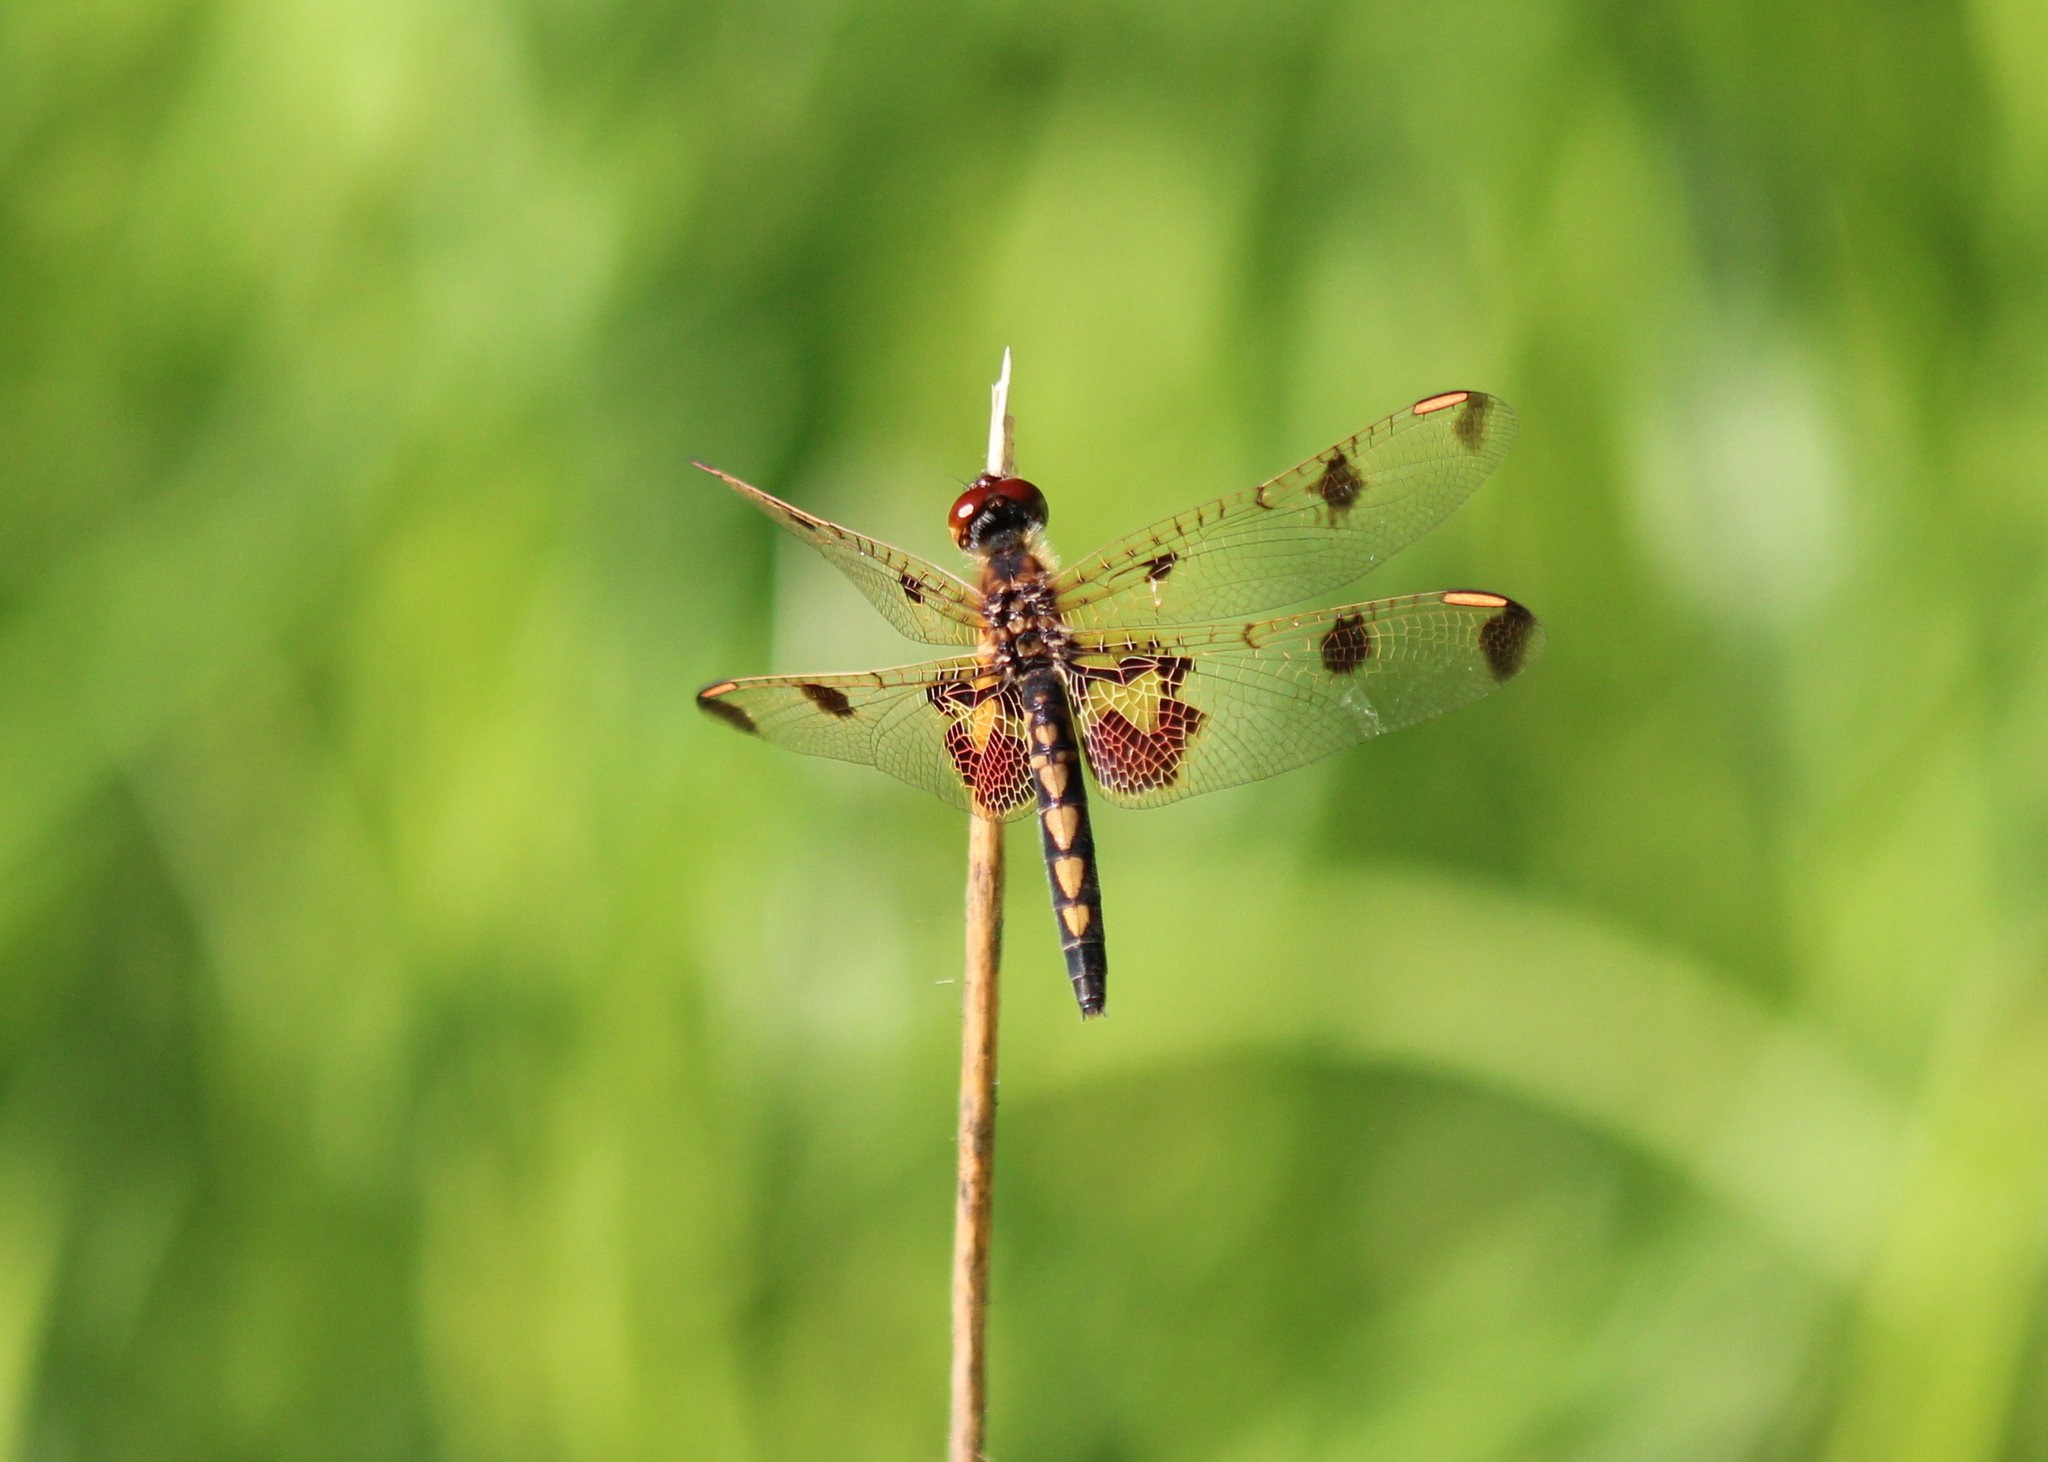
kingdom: Animalia
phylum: Arthropoda
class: Insecta
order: Odonata
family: Libellulidae
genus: Celithemis
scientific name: Celithemis elisa
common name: Calico pennant
